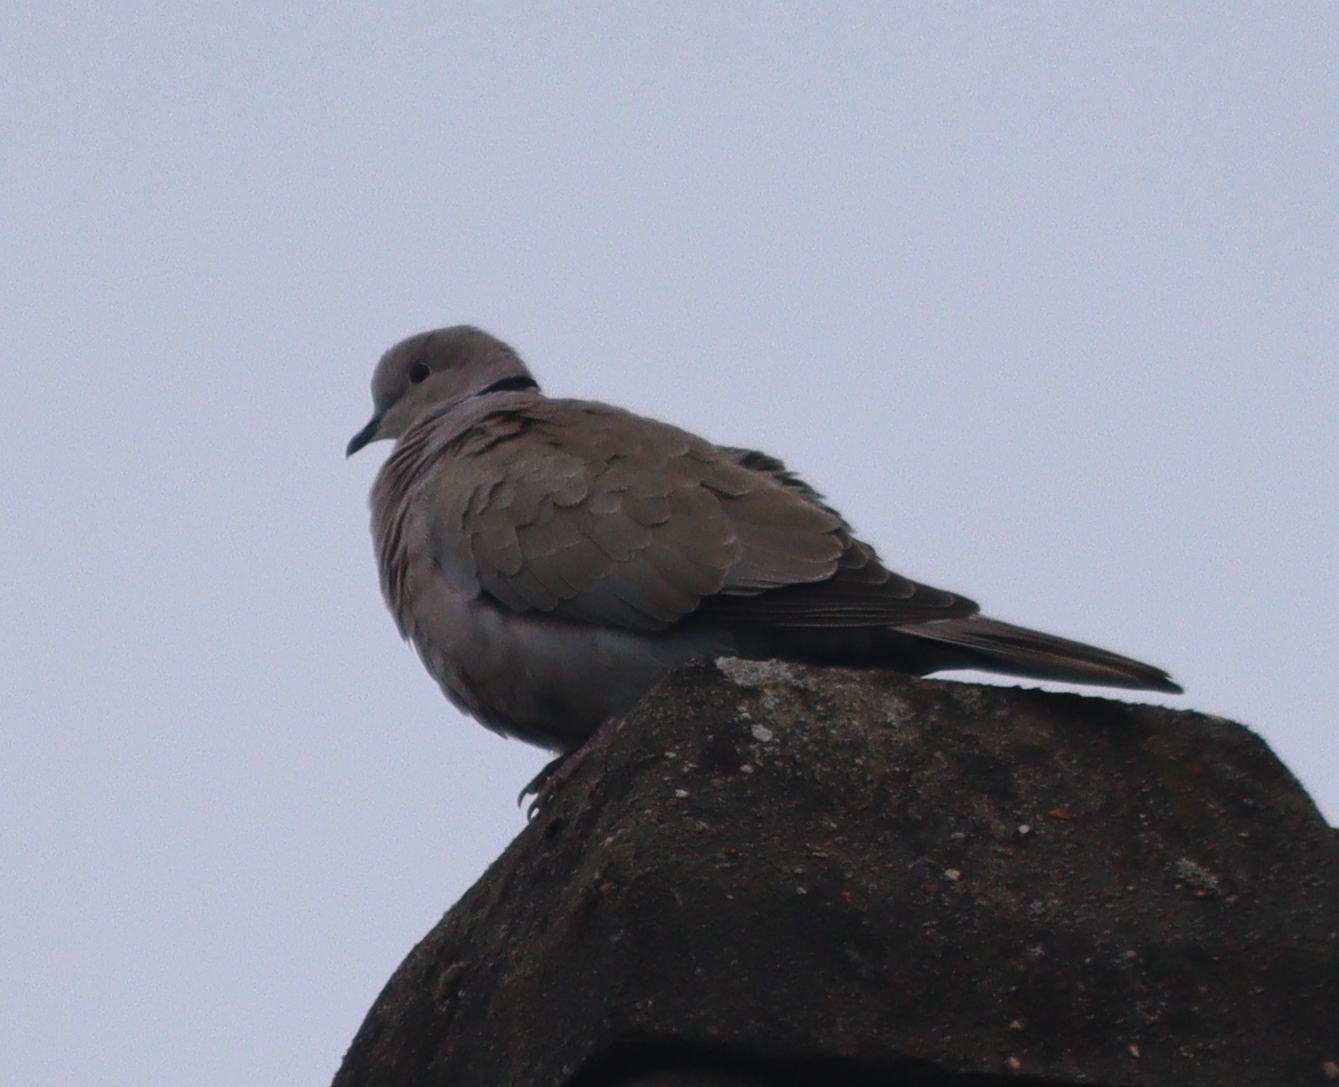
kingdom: Animalia
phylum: Chordata
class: Aves
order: Columbiformes
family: Columbidae
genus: Streptopelia
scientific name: Streptopelia decaocto
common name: Eurasian collared dove
